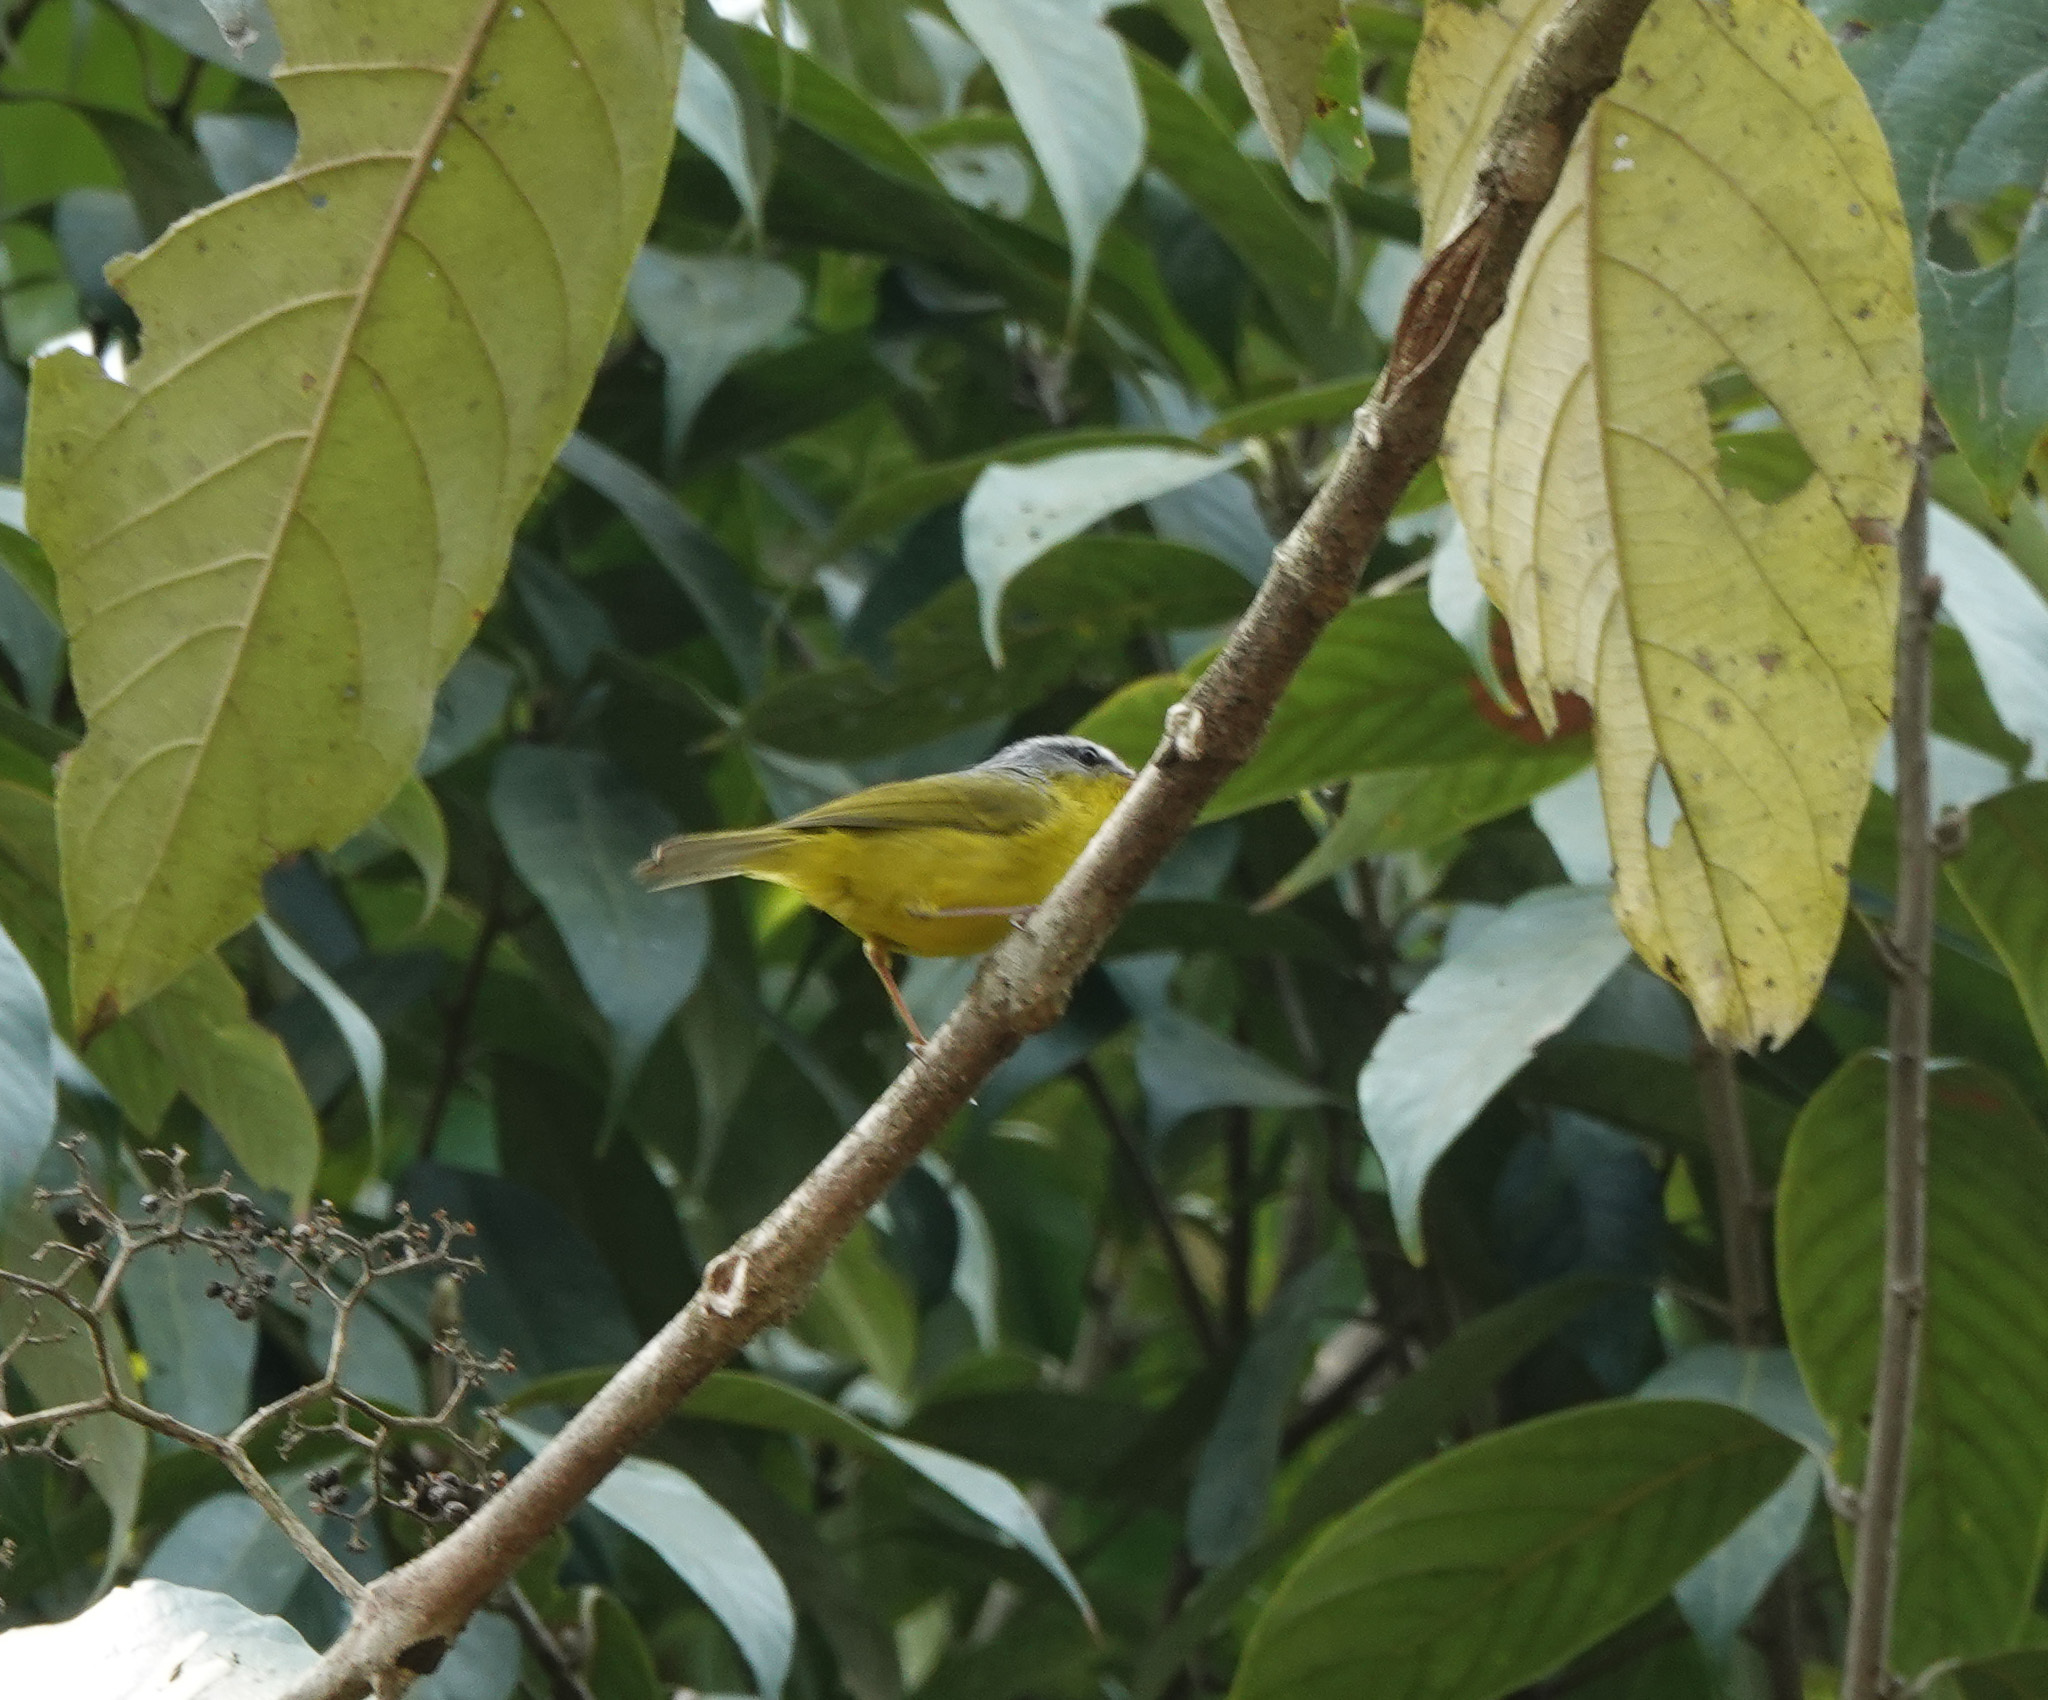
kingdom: Animalia
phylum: Chordata
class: Aves
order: Passeriformes
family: Phylloscopidae
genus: Phylloscopus
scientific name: Phylloscopus xanthoschistos
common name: Grey-hooded warbler
